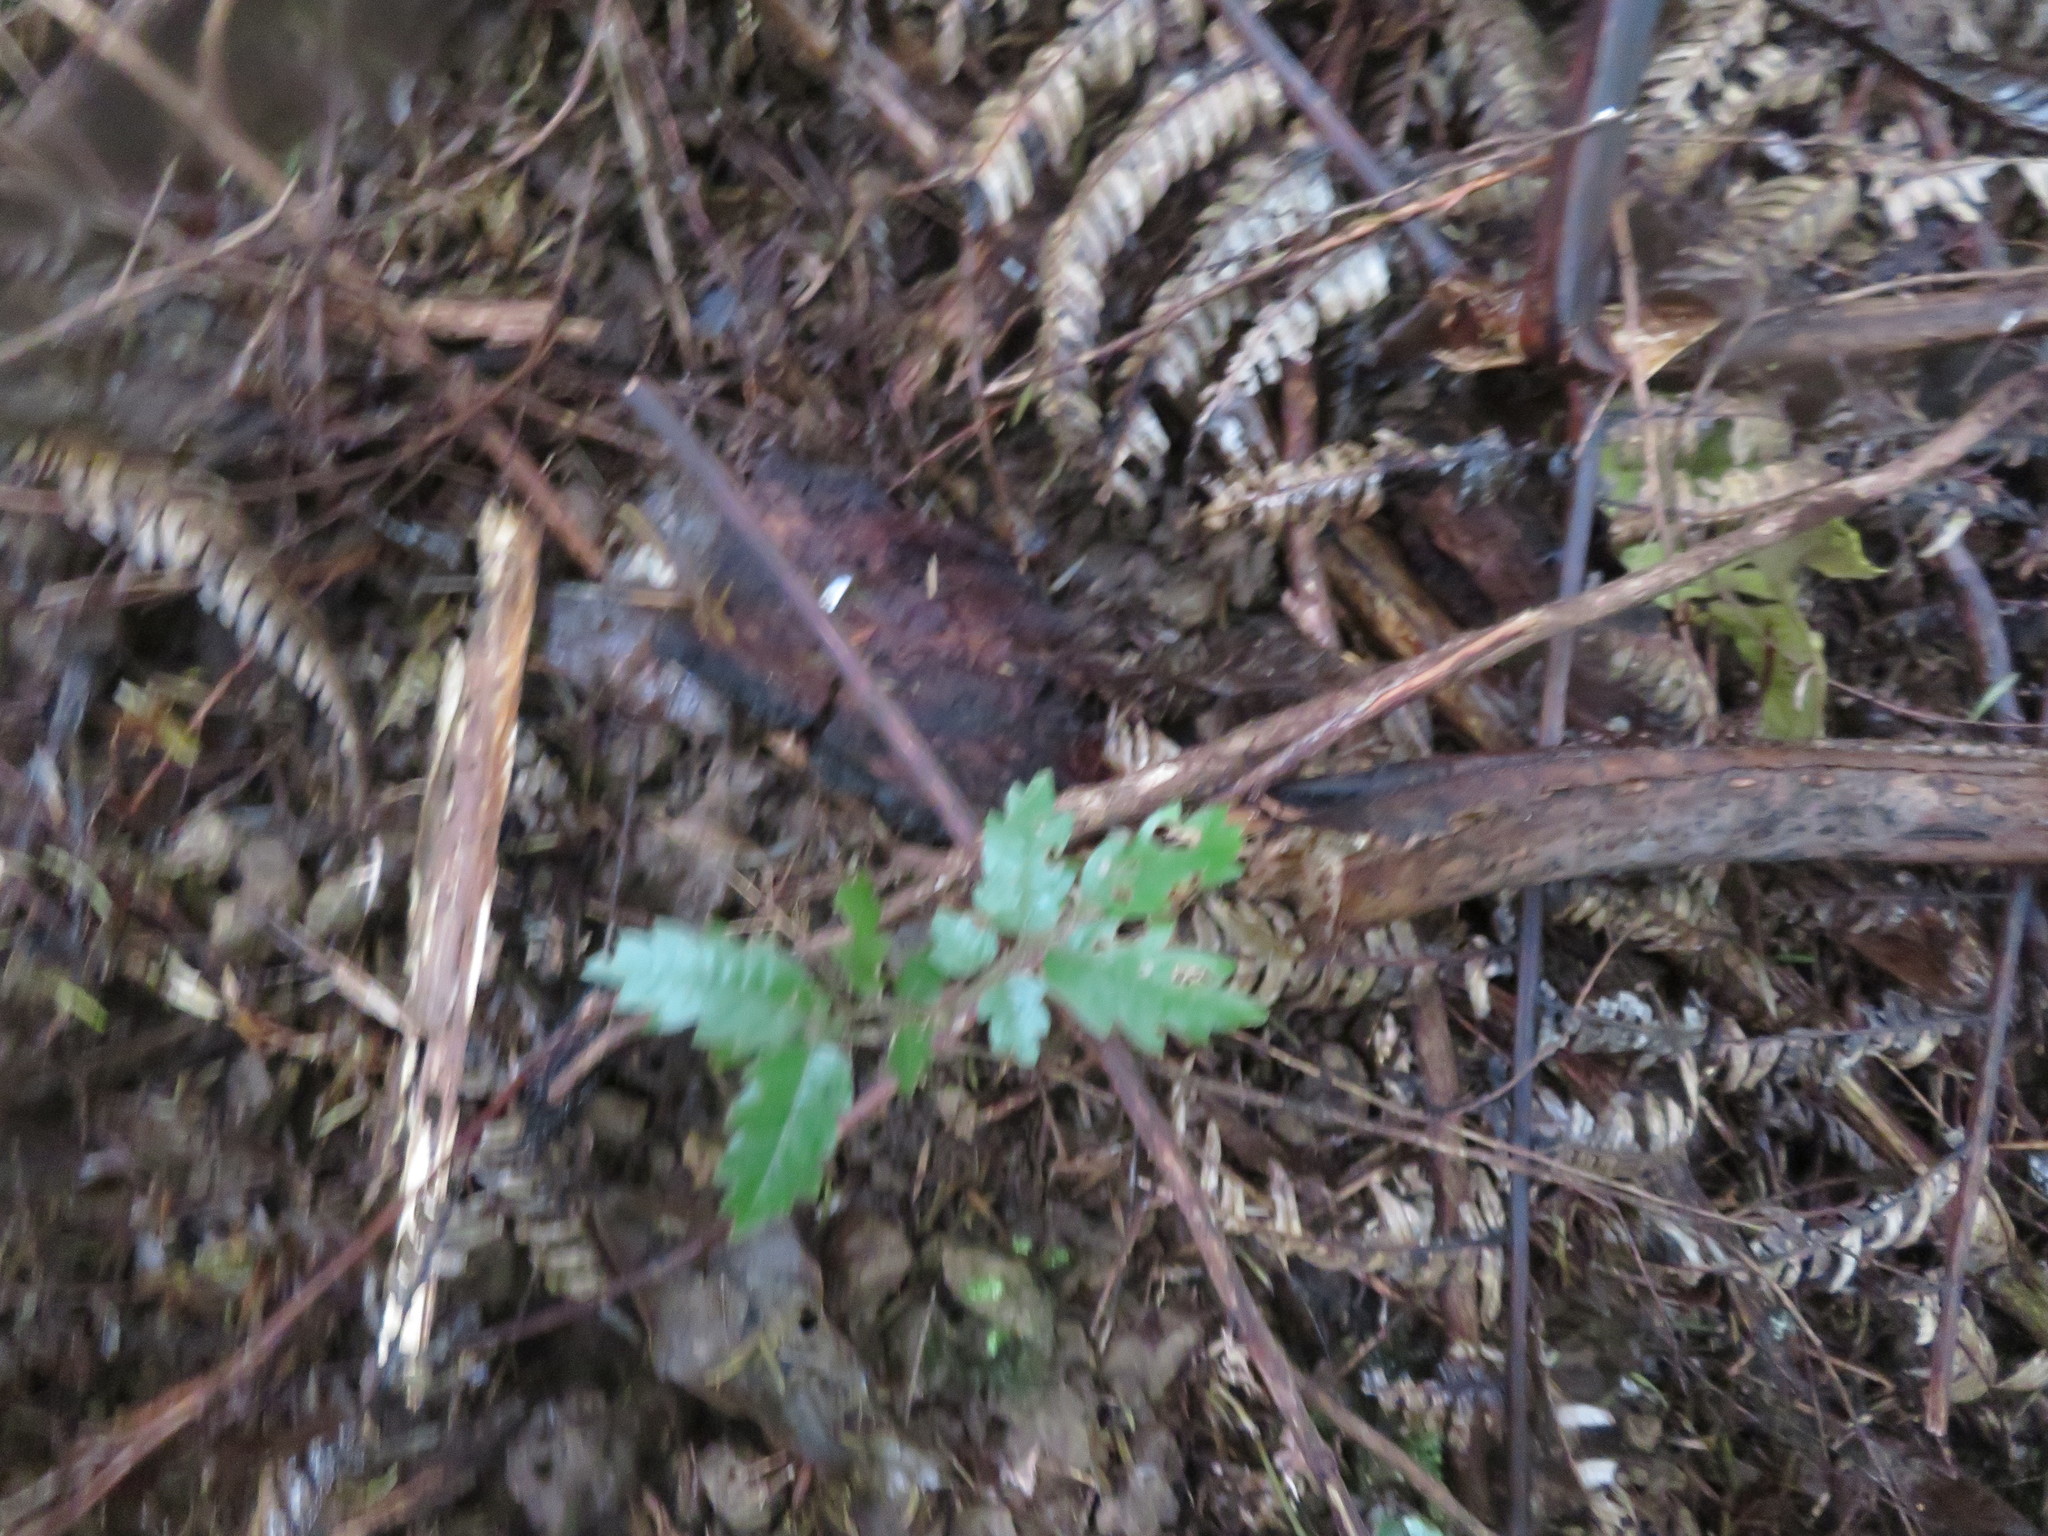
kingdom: Plantae
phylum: Tracheophyta
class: Magnoliopsida
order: Sapindales
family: Sapindaceae
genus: Alectryon
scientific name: Alectryon excelsus
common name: Three kings titoki
